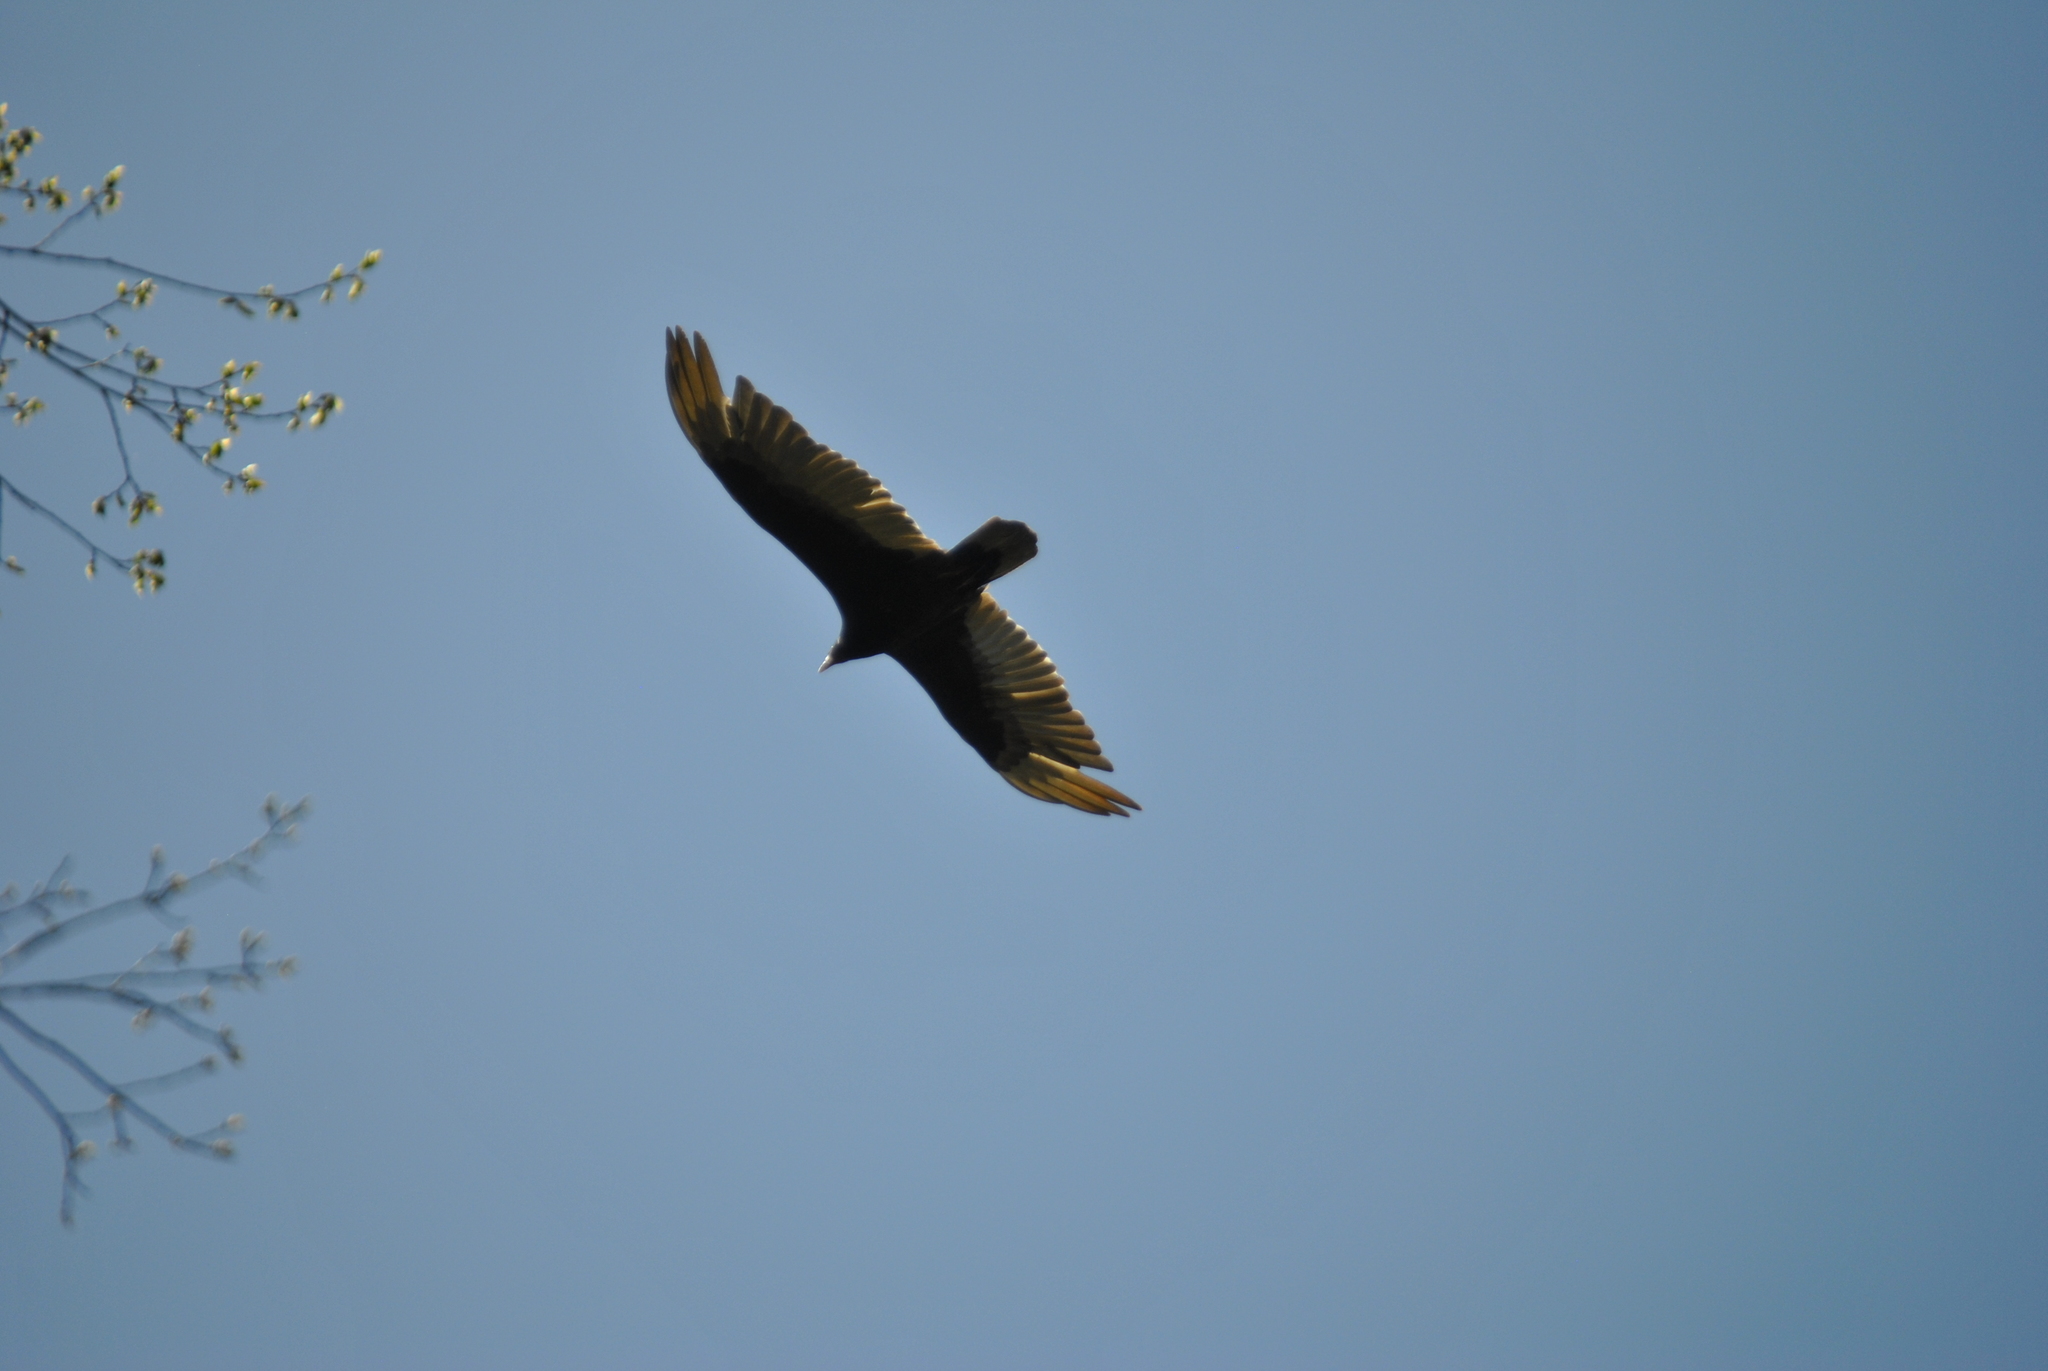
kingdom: Animalia
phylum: Chordata
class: Aves
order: Accipitriformes
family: Cathartidae
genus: Cathartes
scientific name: Cathartes aura
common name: Turkey vulture
